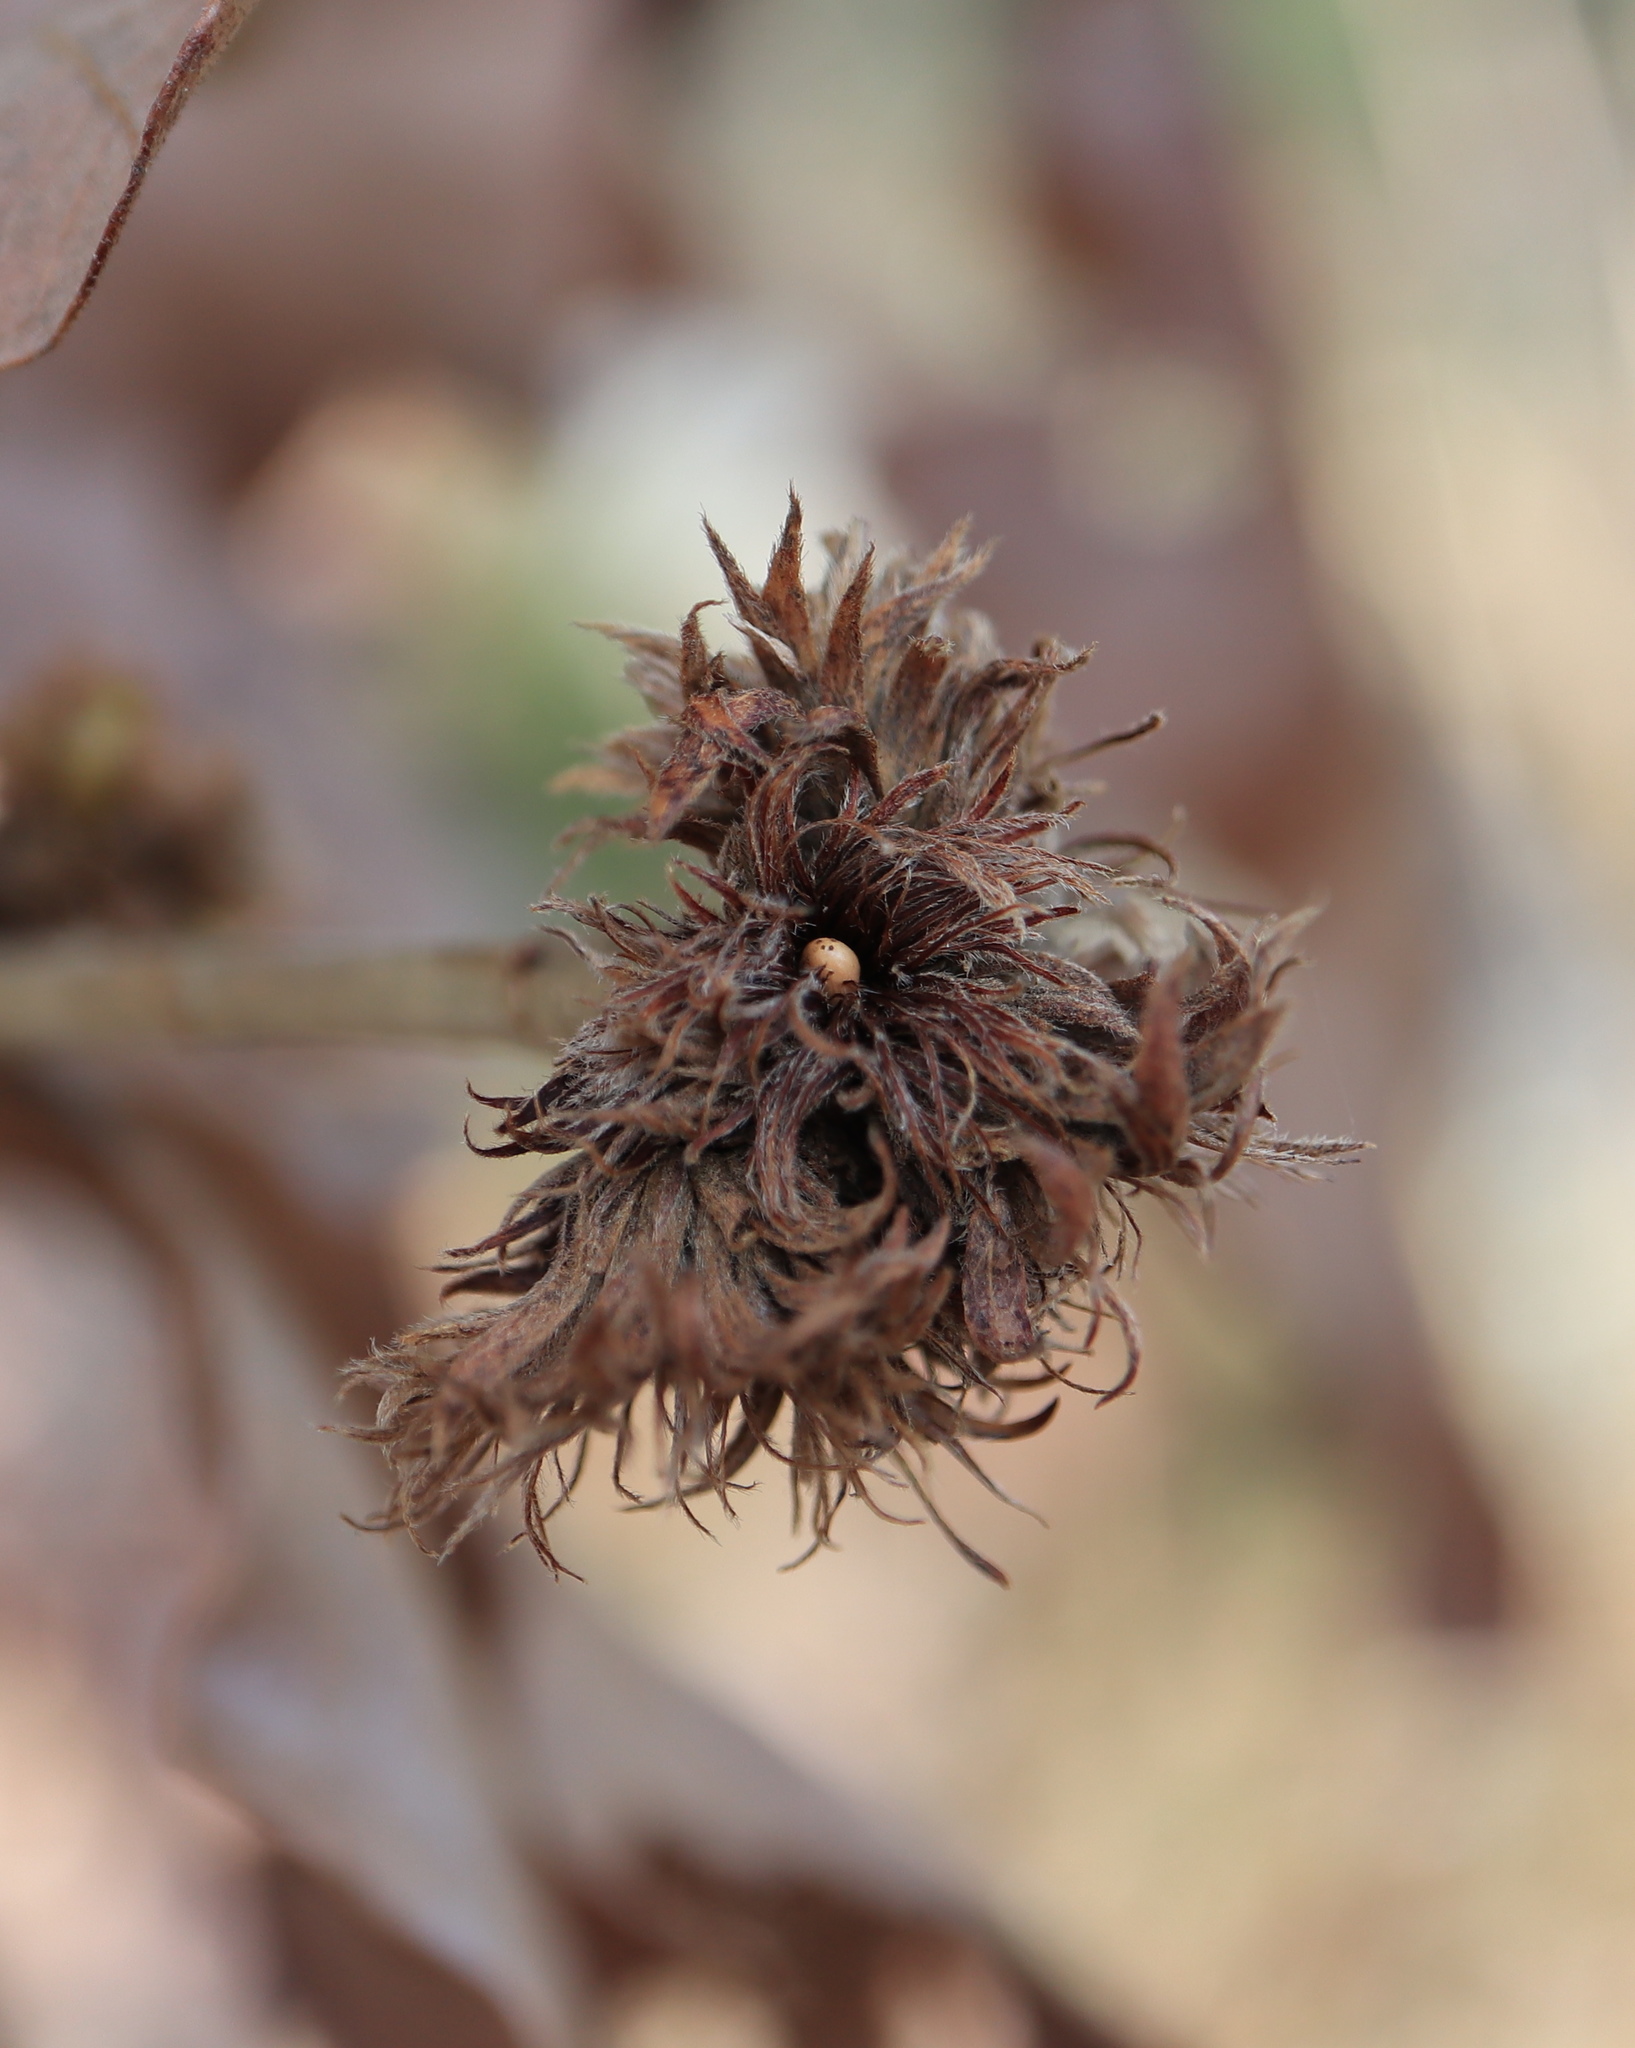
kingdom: Animalia
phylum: Arthropoda
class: Insecta
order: Hymenoptera
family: Cynipidae
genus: Andricus
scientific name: Andricus
